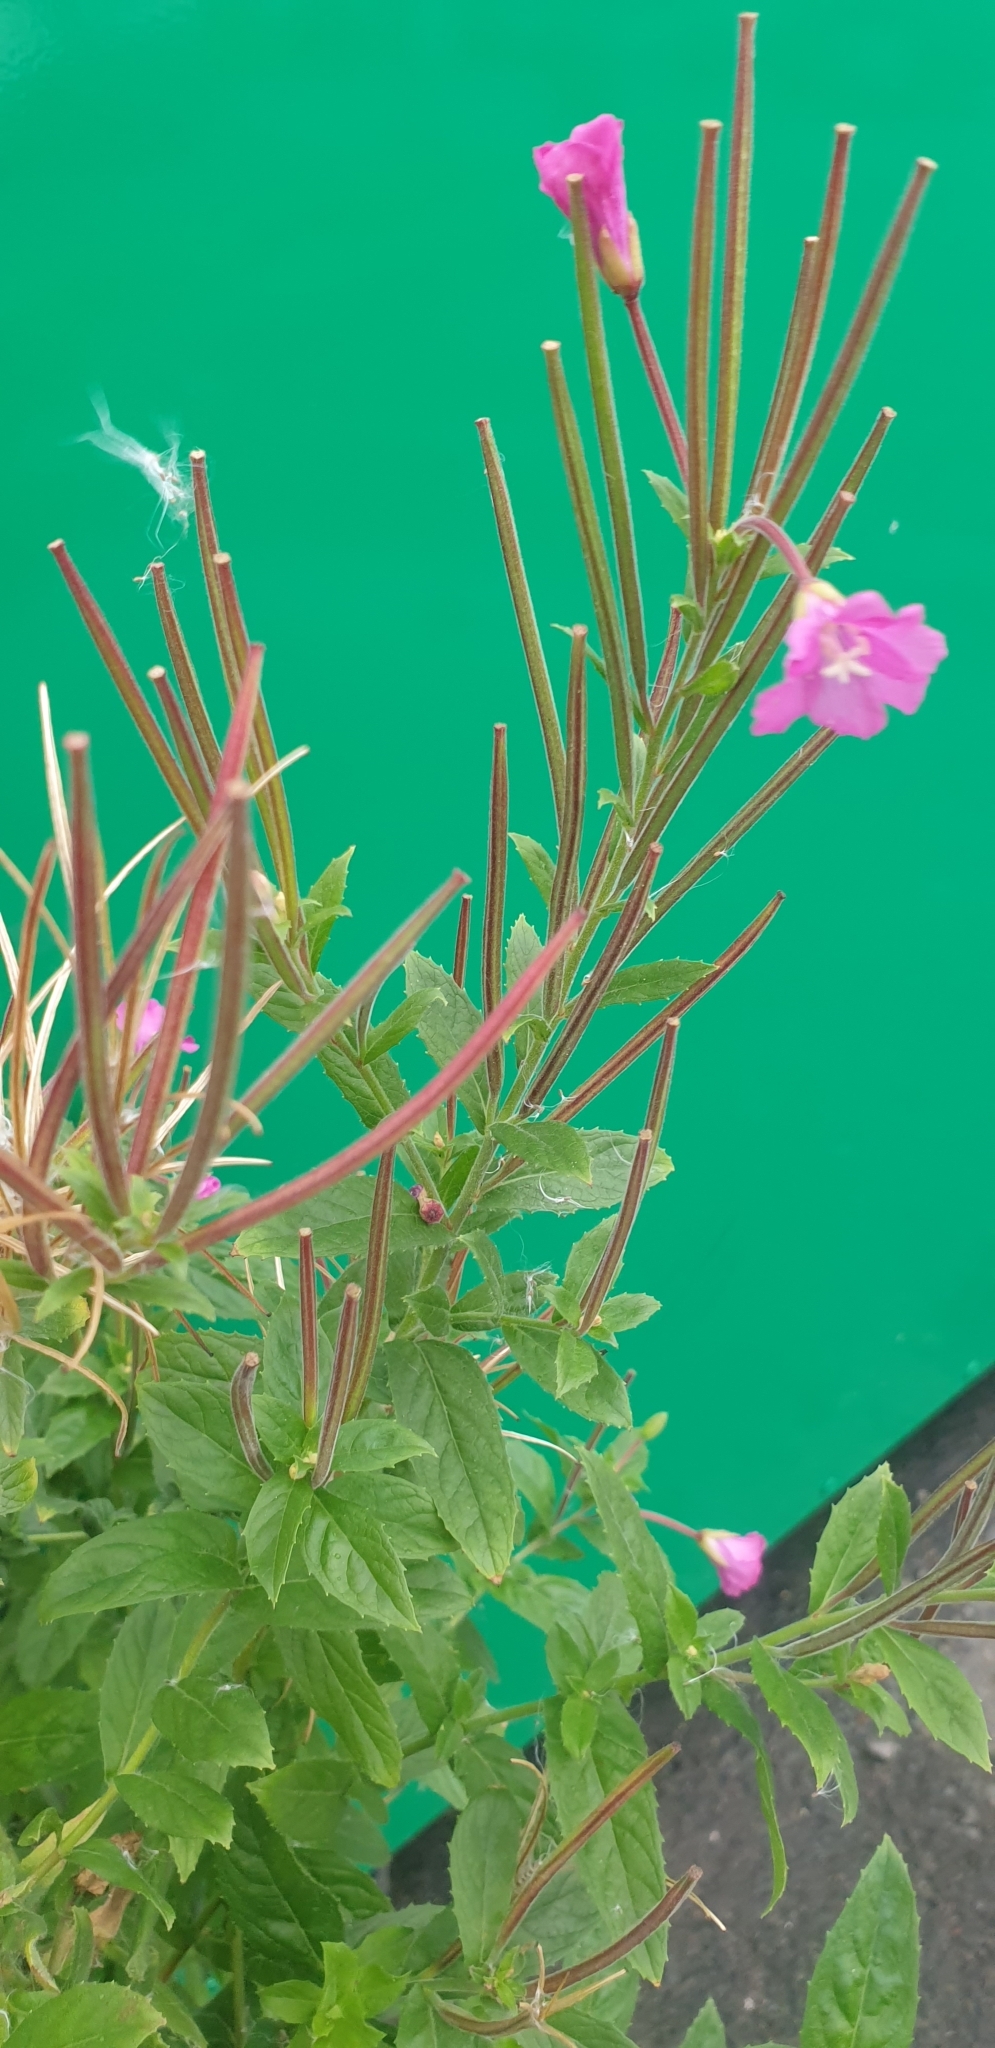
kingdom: Plantae
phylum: Tracheophyta
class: Magnoliopsida
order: Myrtales
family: Onagraceae
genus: Epilobium
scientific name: Epilobium hirsutum
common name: Great willowherb
